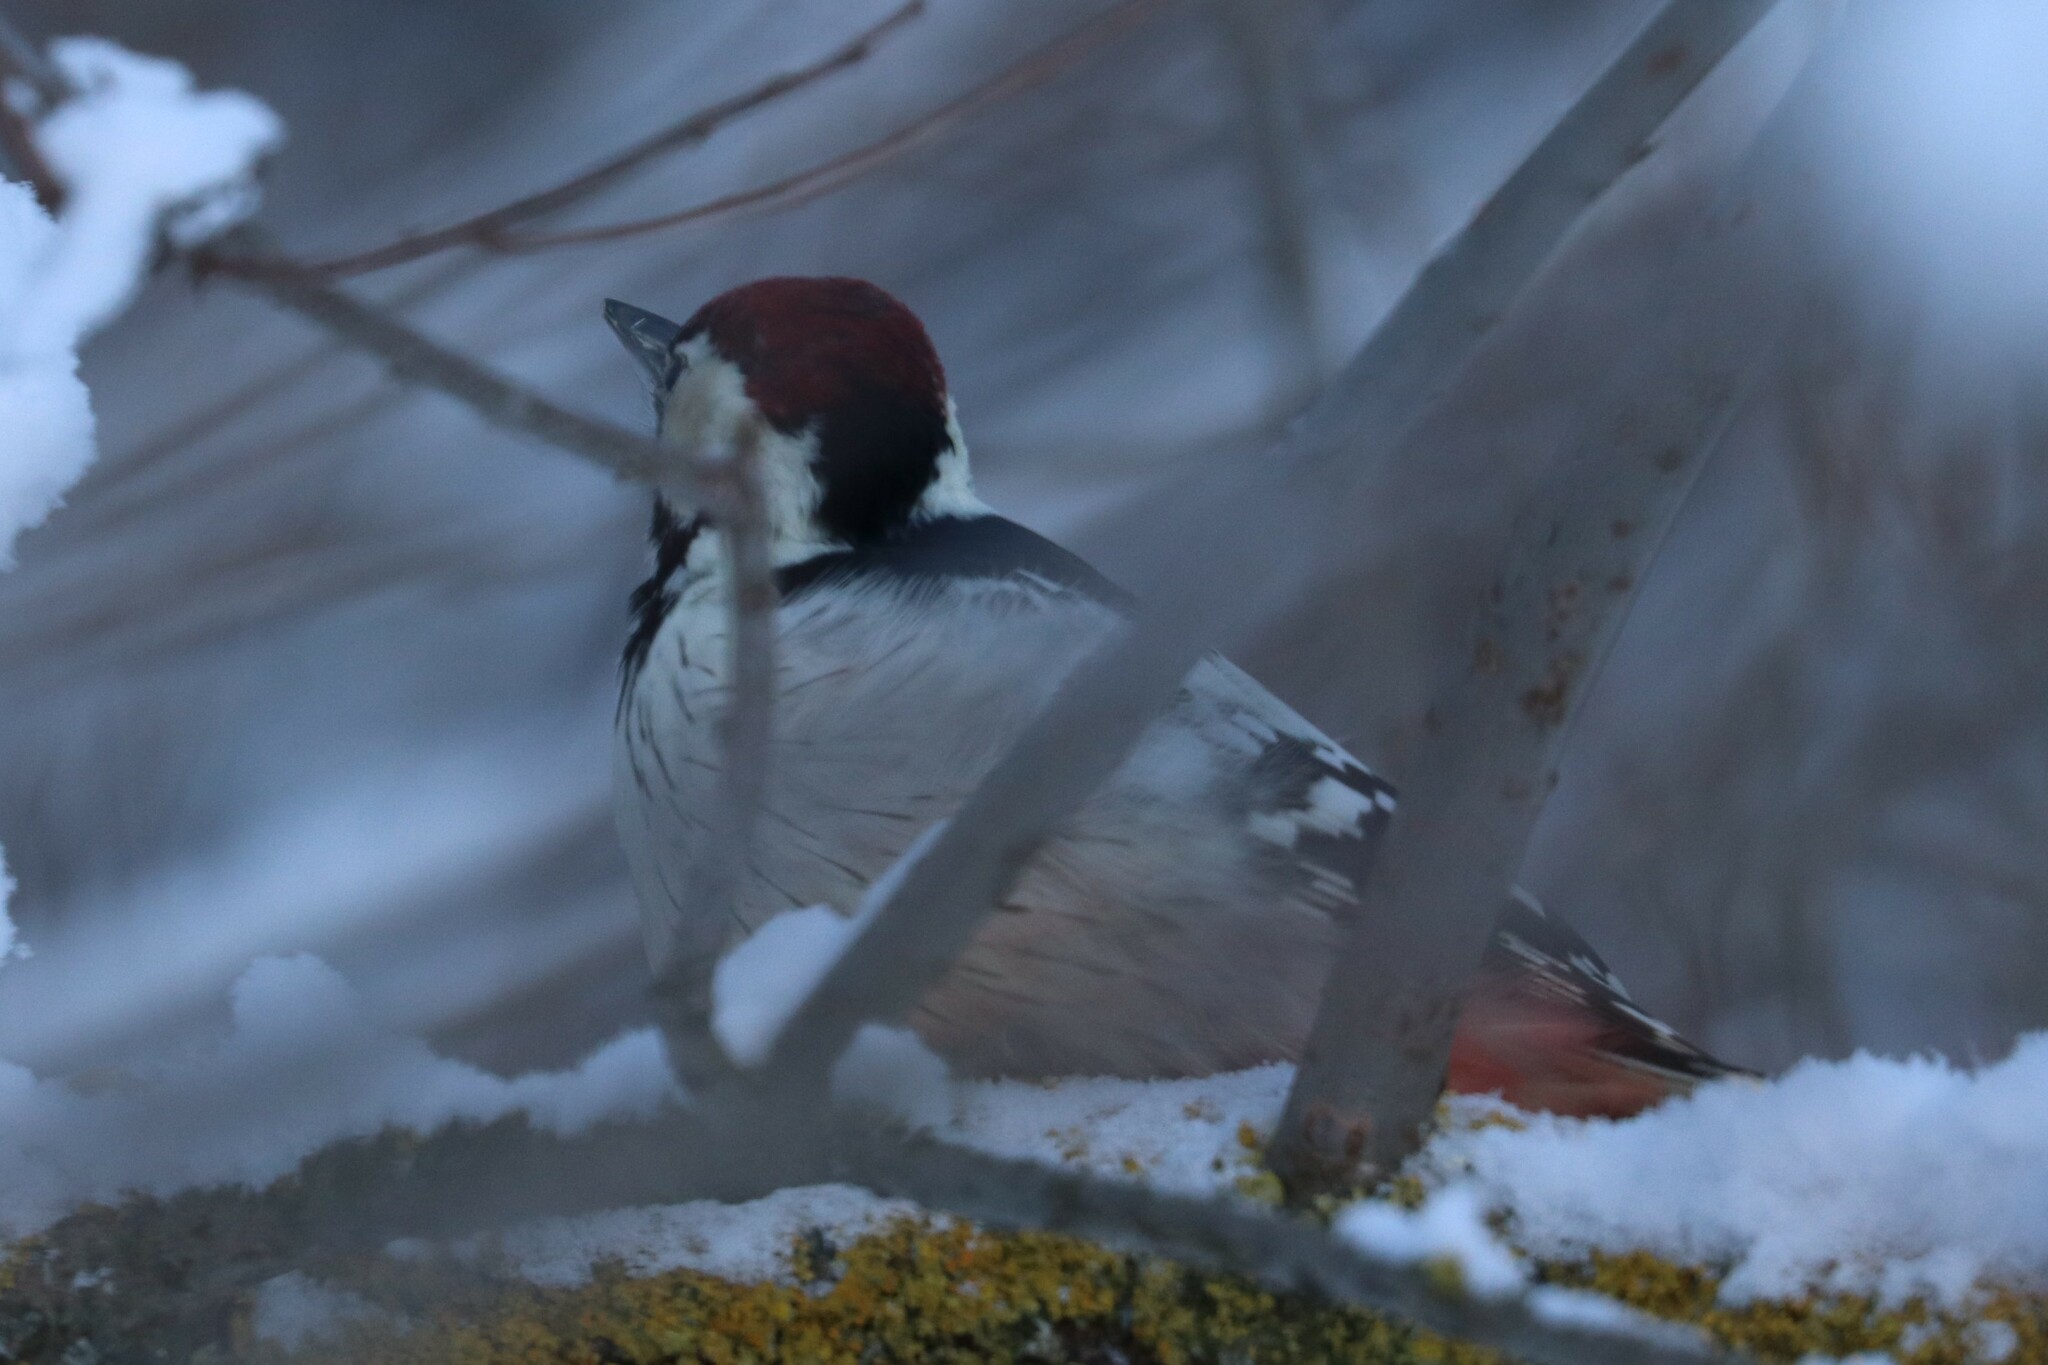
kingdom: Animalia
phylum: Chordata
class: Aves
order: Piciformes
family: Picidae
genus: Dendrocopos
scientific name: Dendrocopos leucotos
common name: White-backed woodpecker
